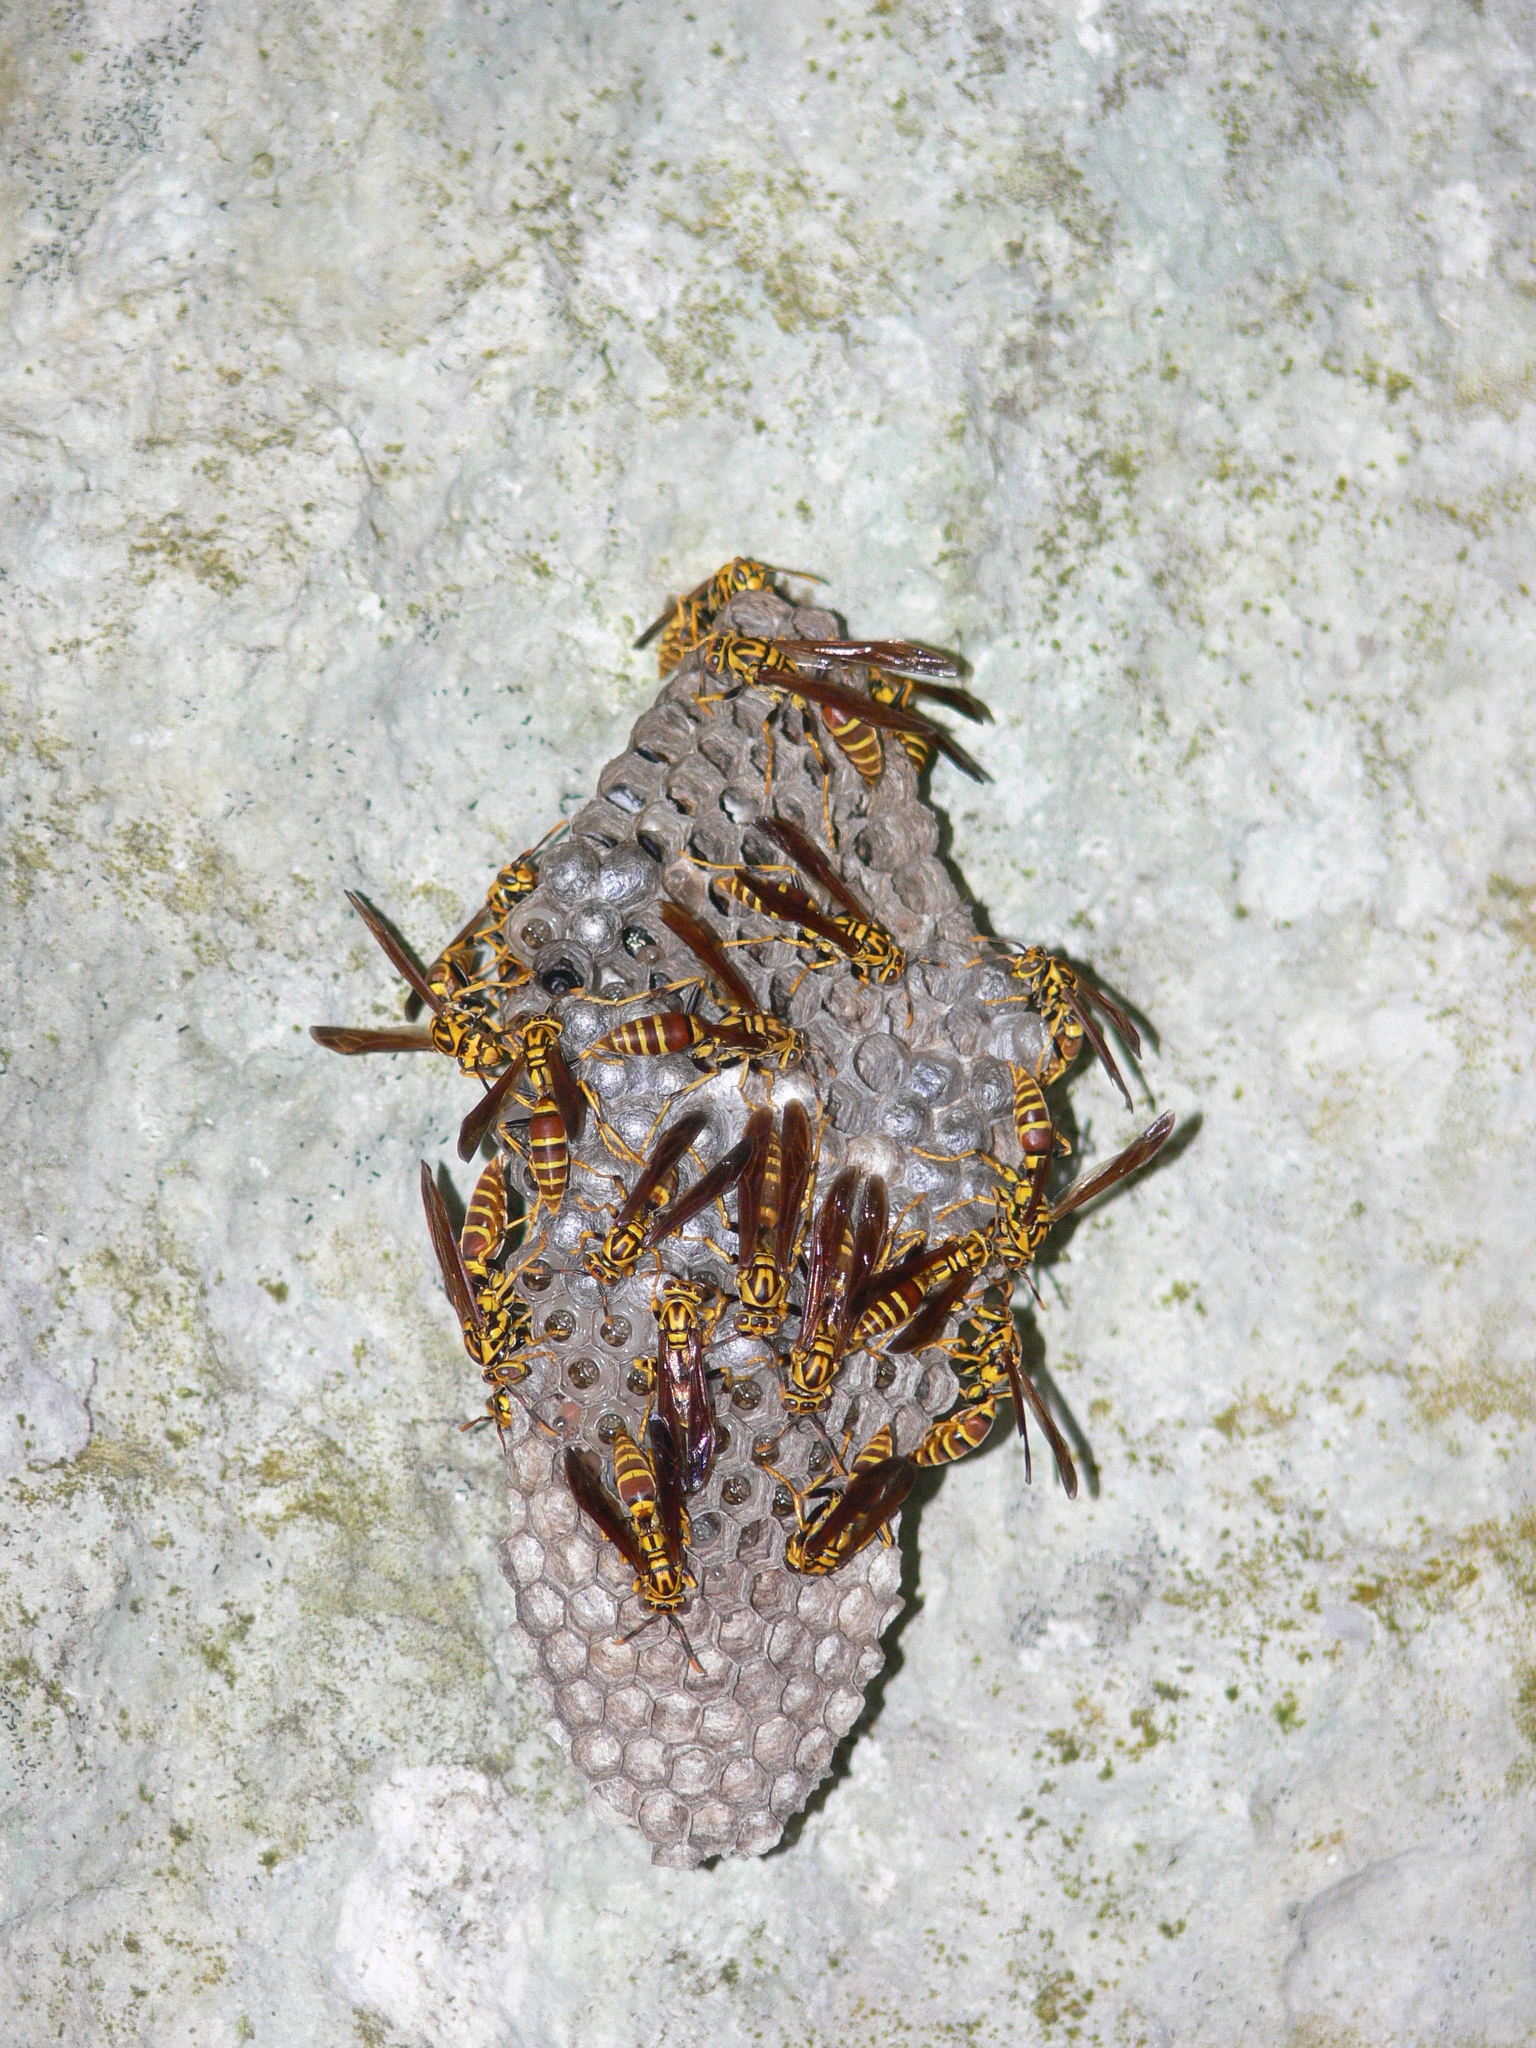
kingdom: Animalia
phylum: Arthropoda
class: Insecta
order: Hymenoptera
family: Eumenidae
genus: Polistes
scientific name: Polistes cubensis
